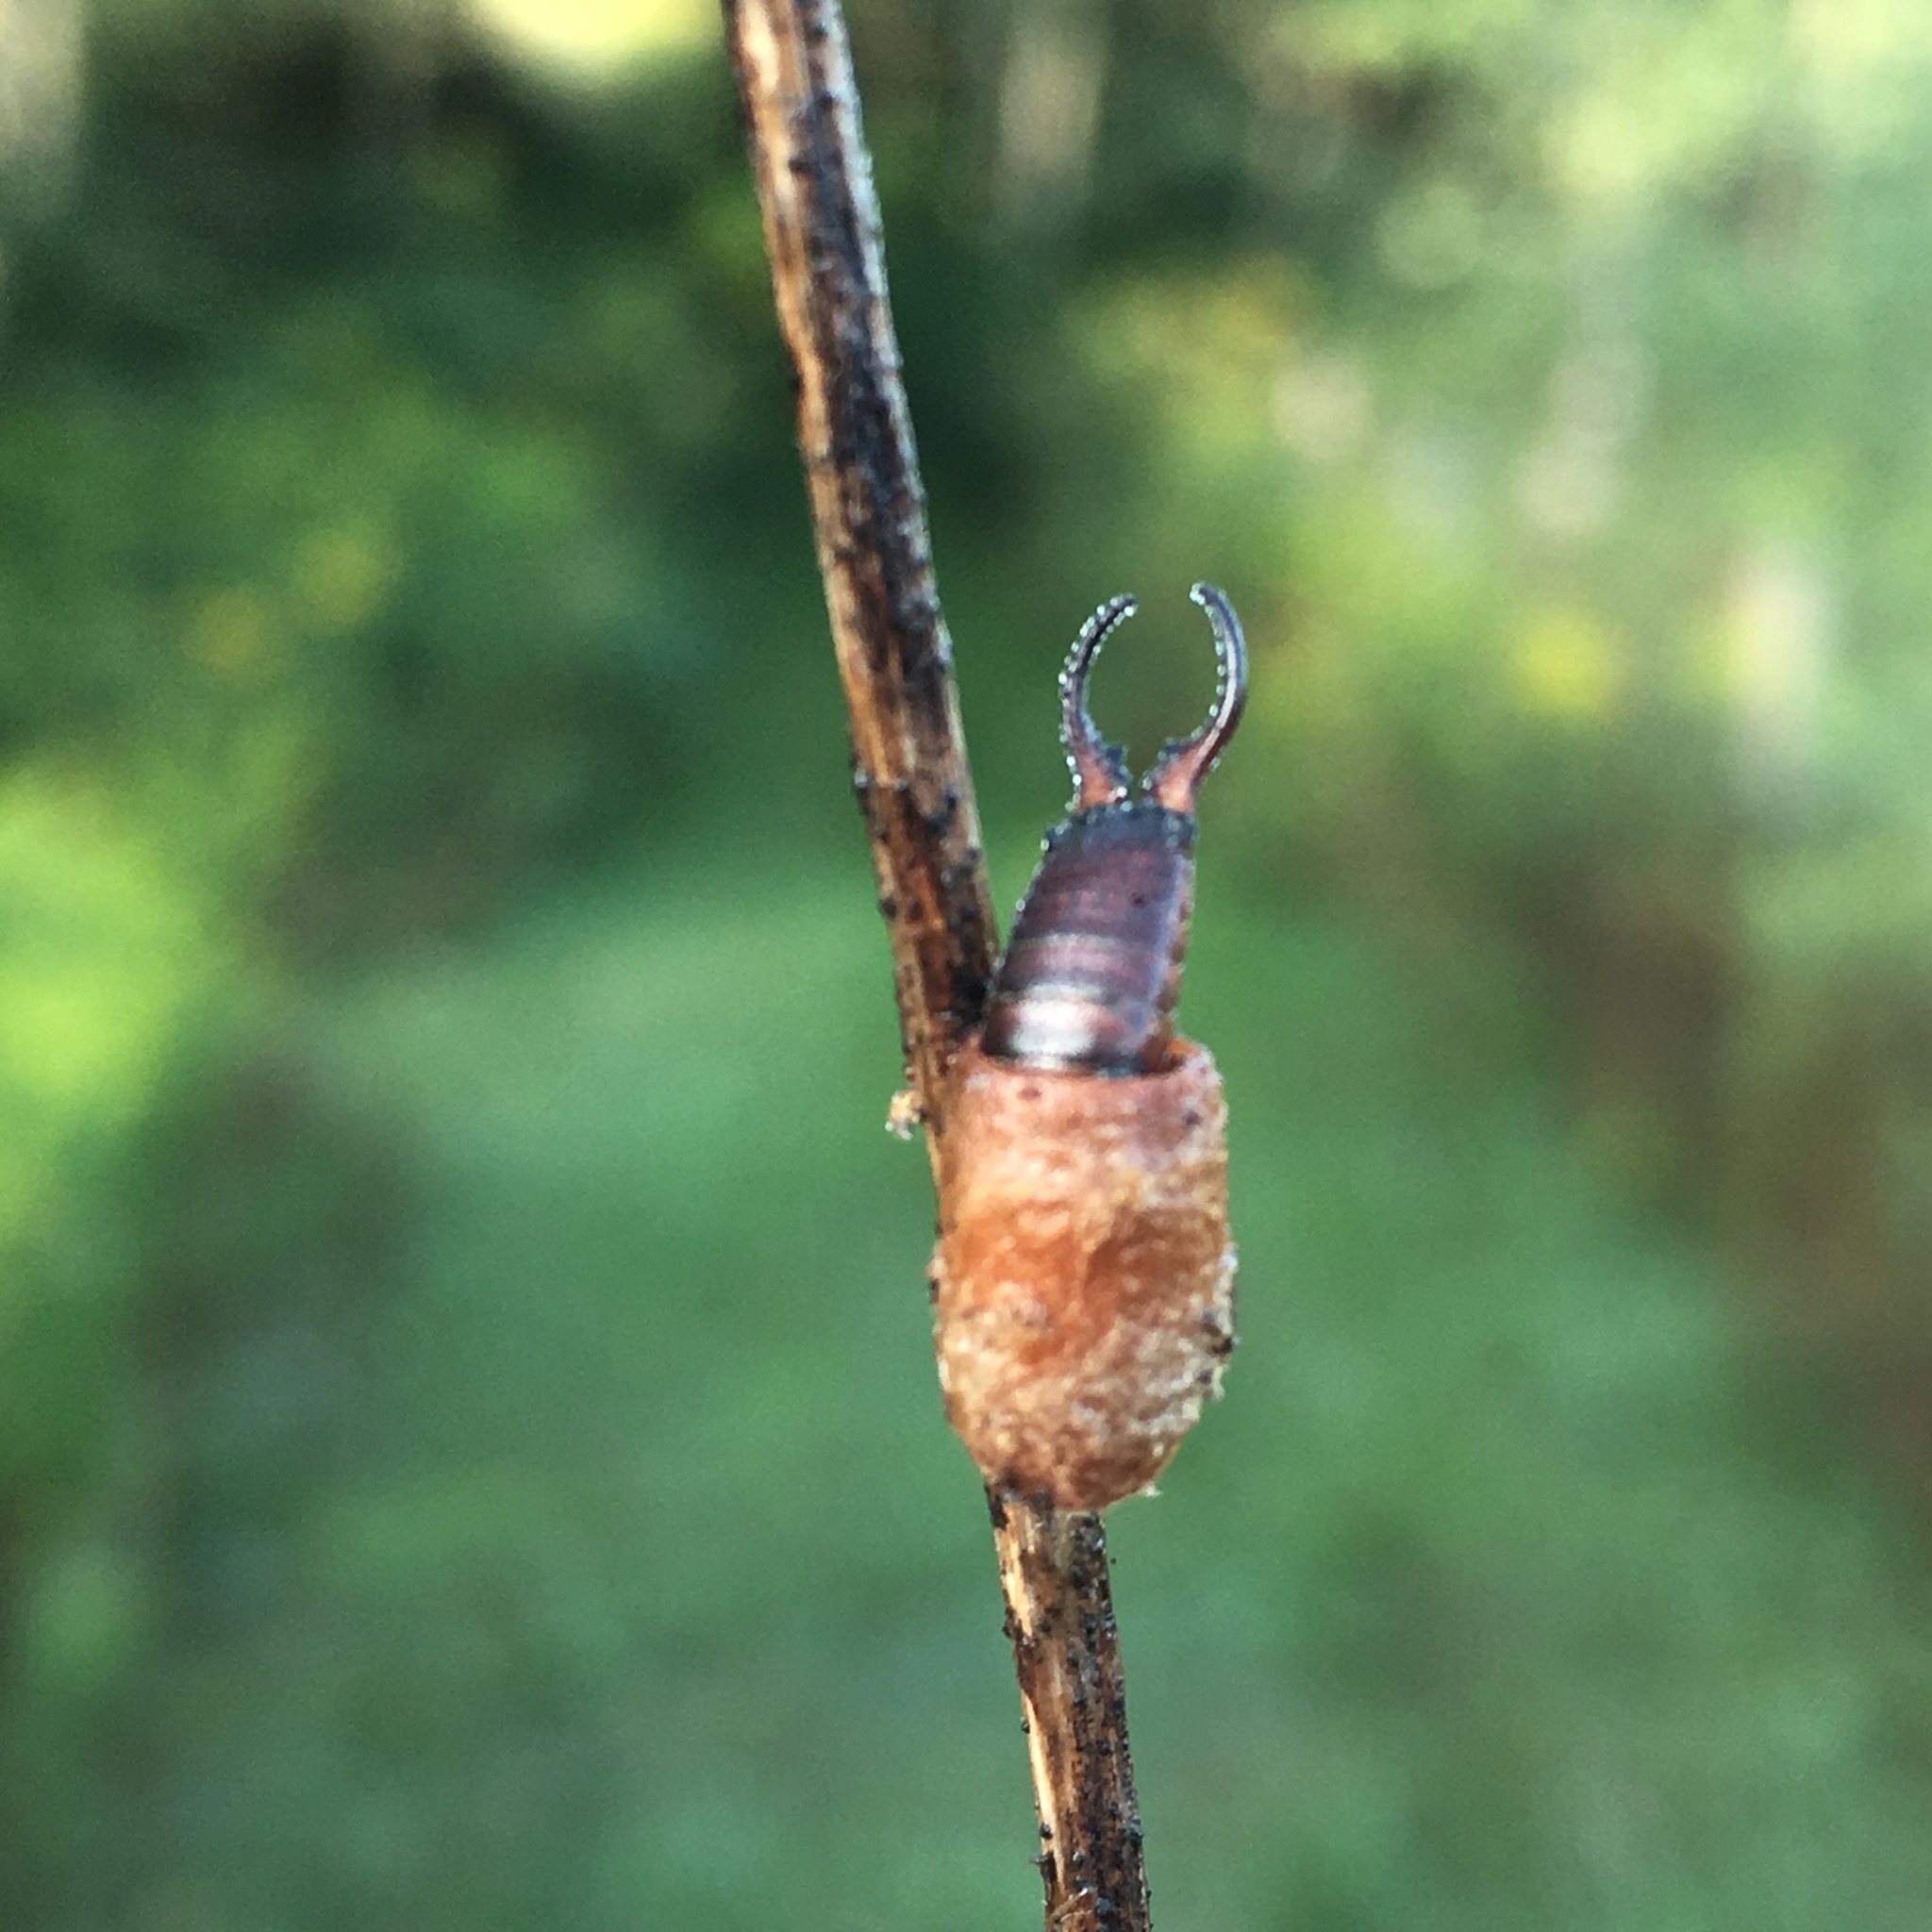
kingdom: Animalia
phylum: Arthropoda
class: Insecta
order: Dermaptera
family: Forficulidae
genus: Forficula
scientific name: Forficula
